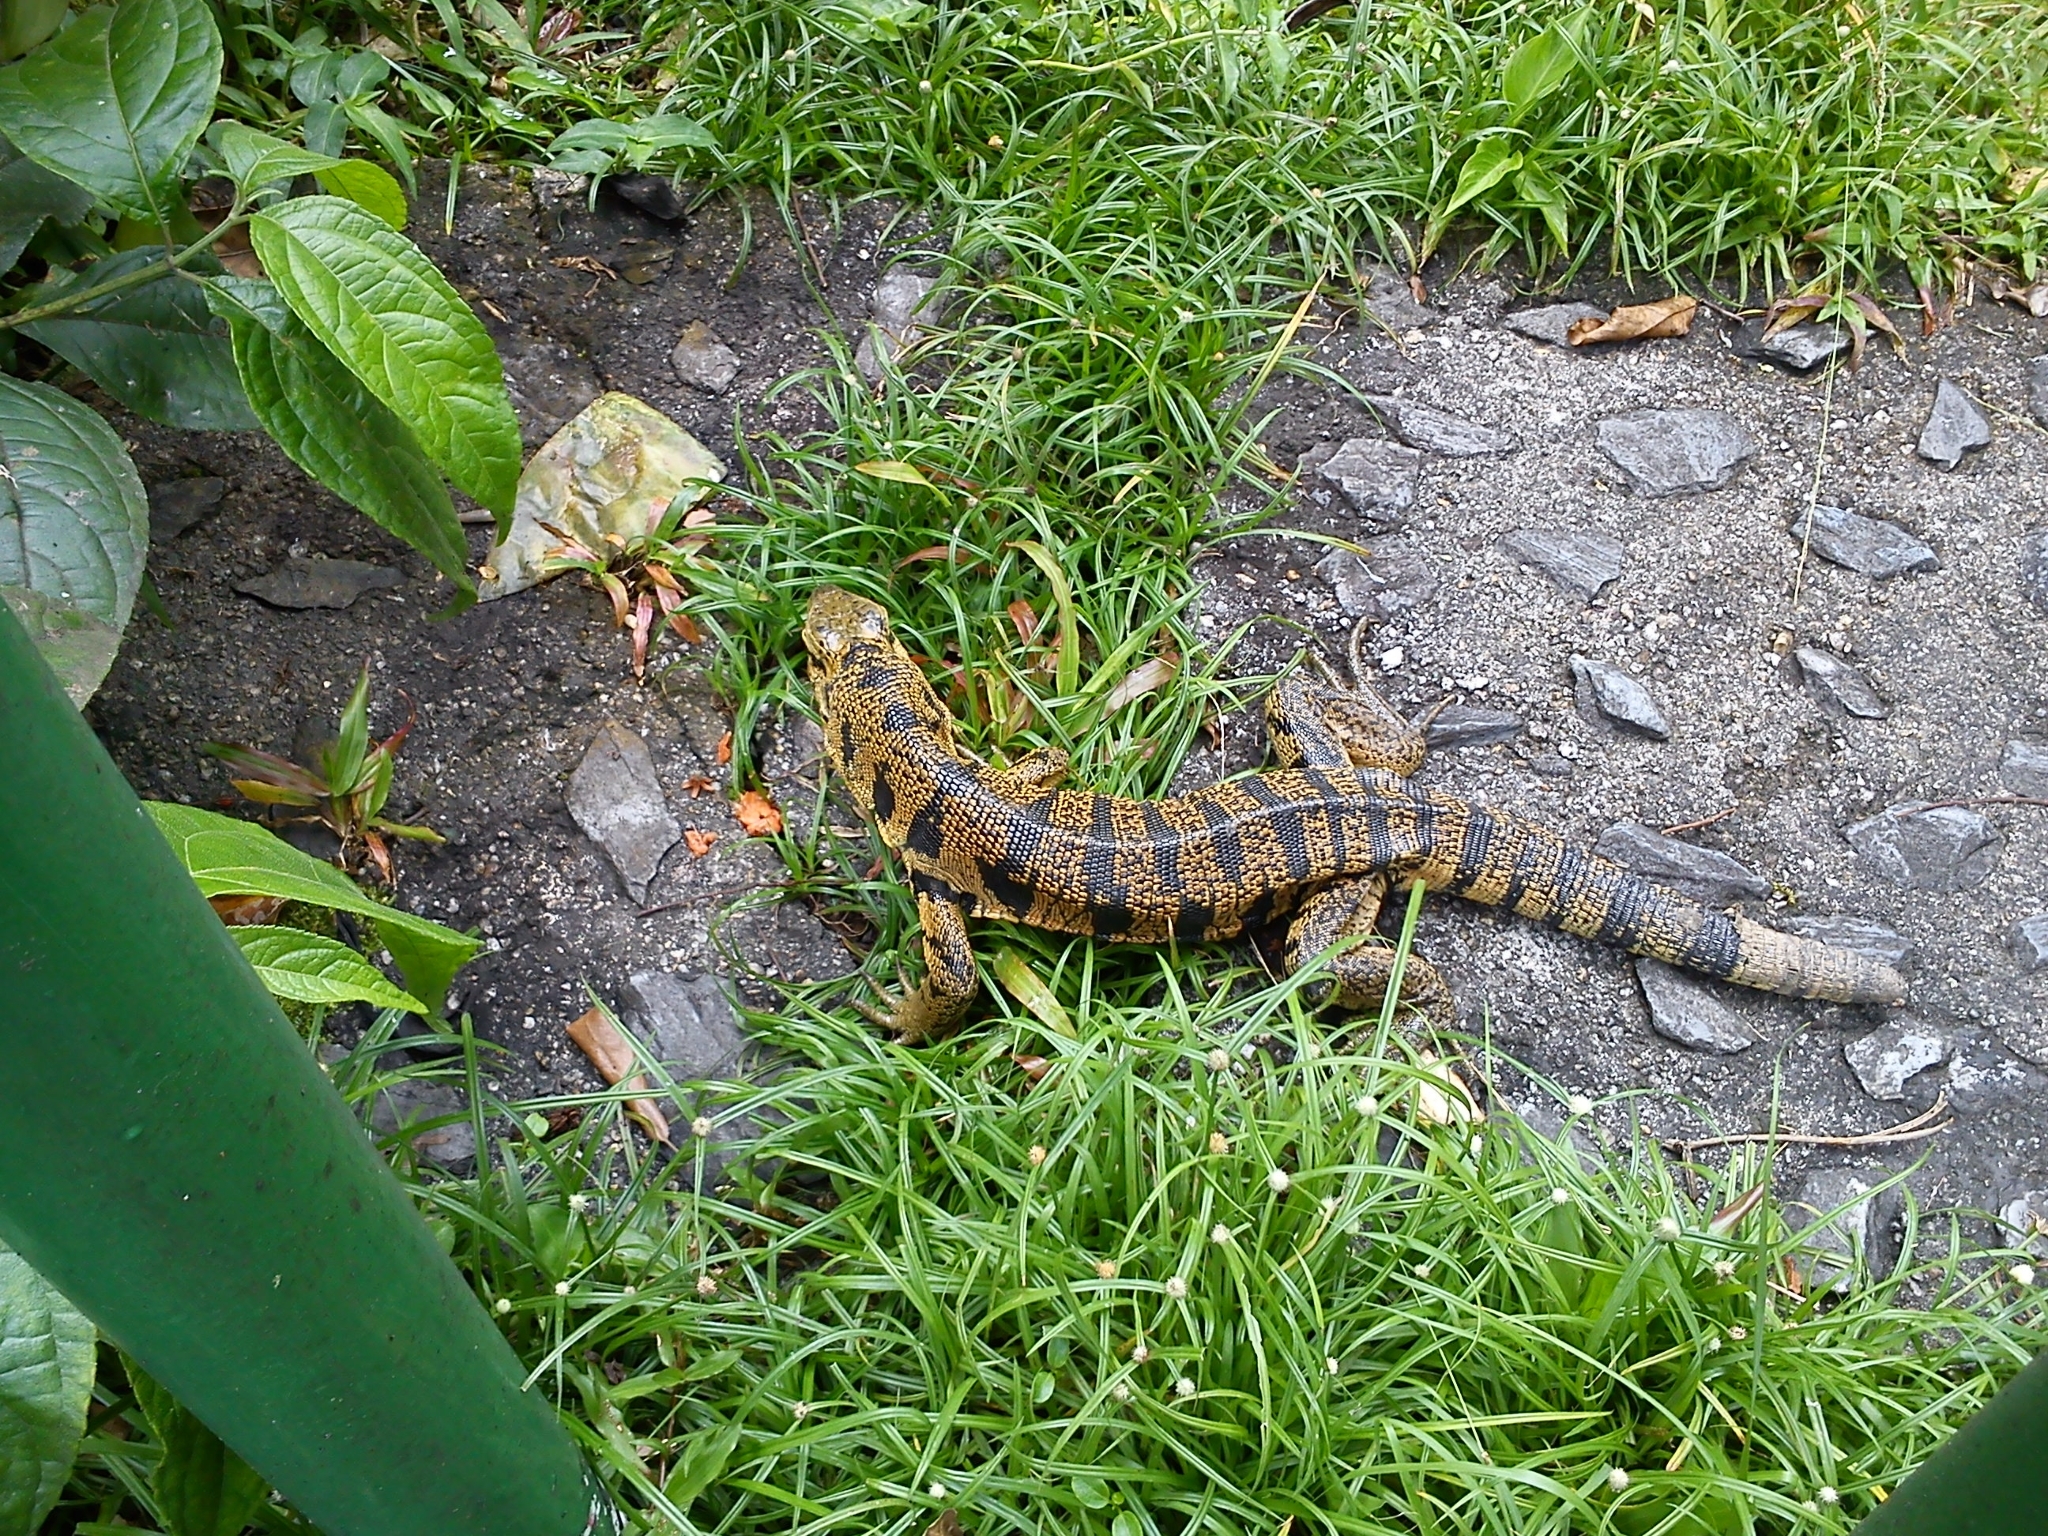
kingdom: Animalia
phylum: Chordata
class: Squamata
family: Teiidae
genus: Tupinambis
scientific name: Tupinambis cryptus
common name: Cryptic golden tegu
